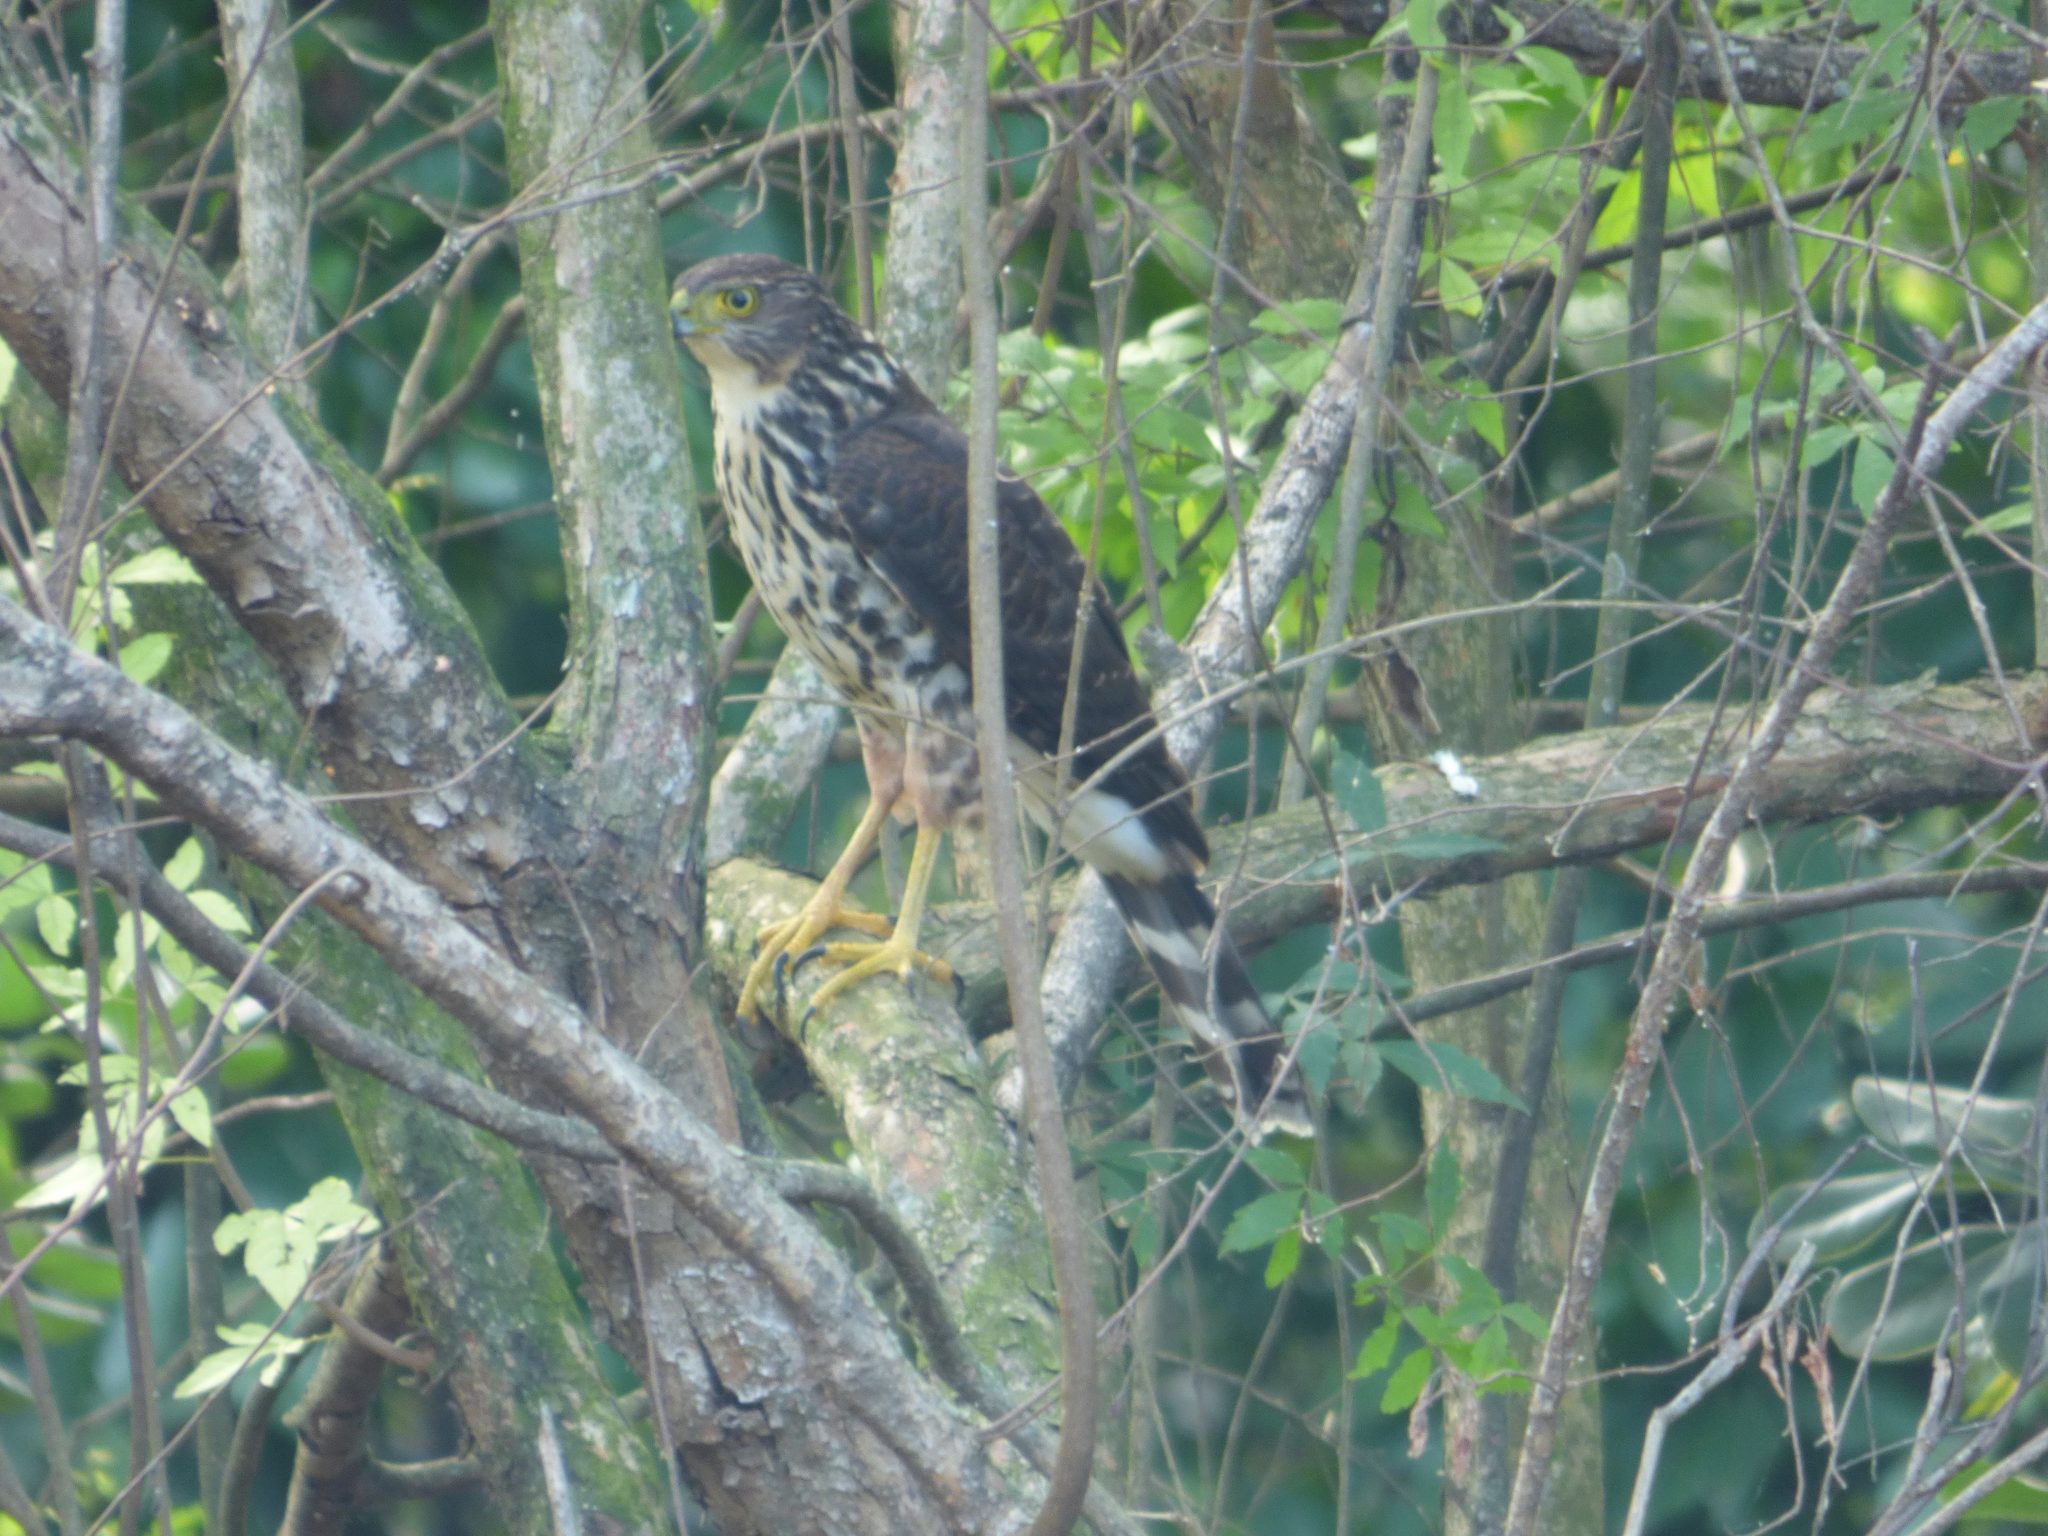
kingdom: Animalia
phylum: Chordata
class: Aves
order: Accipitriformes
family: Accipitridae
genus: Accipiter
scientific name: Accipiter bicolor
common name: Bicolored hawk
